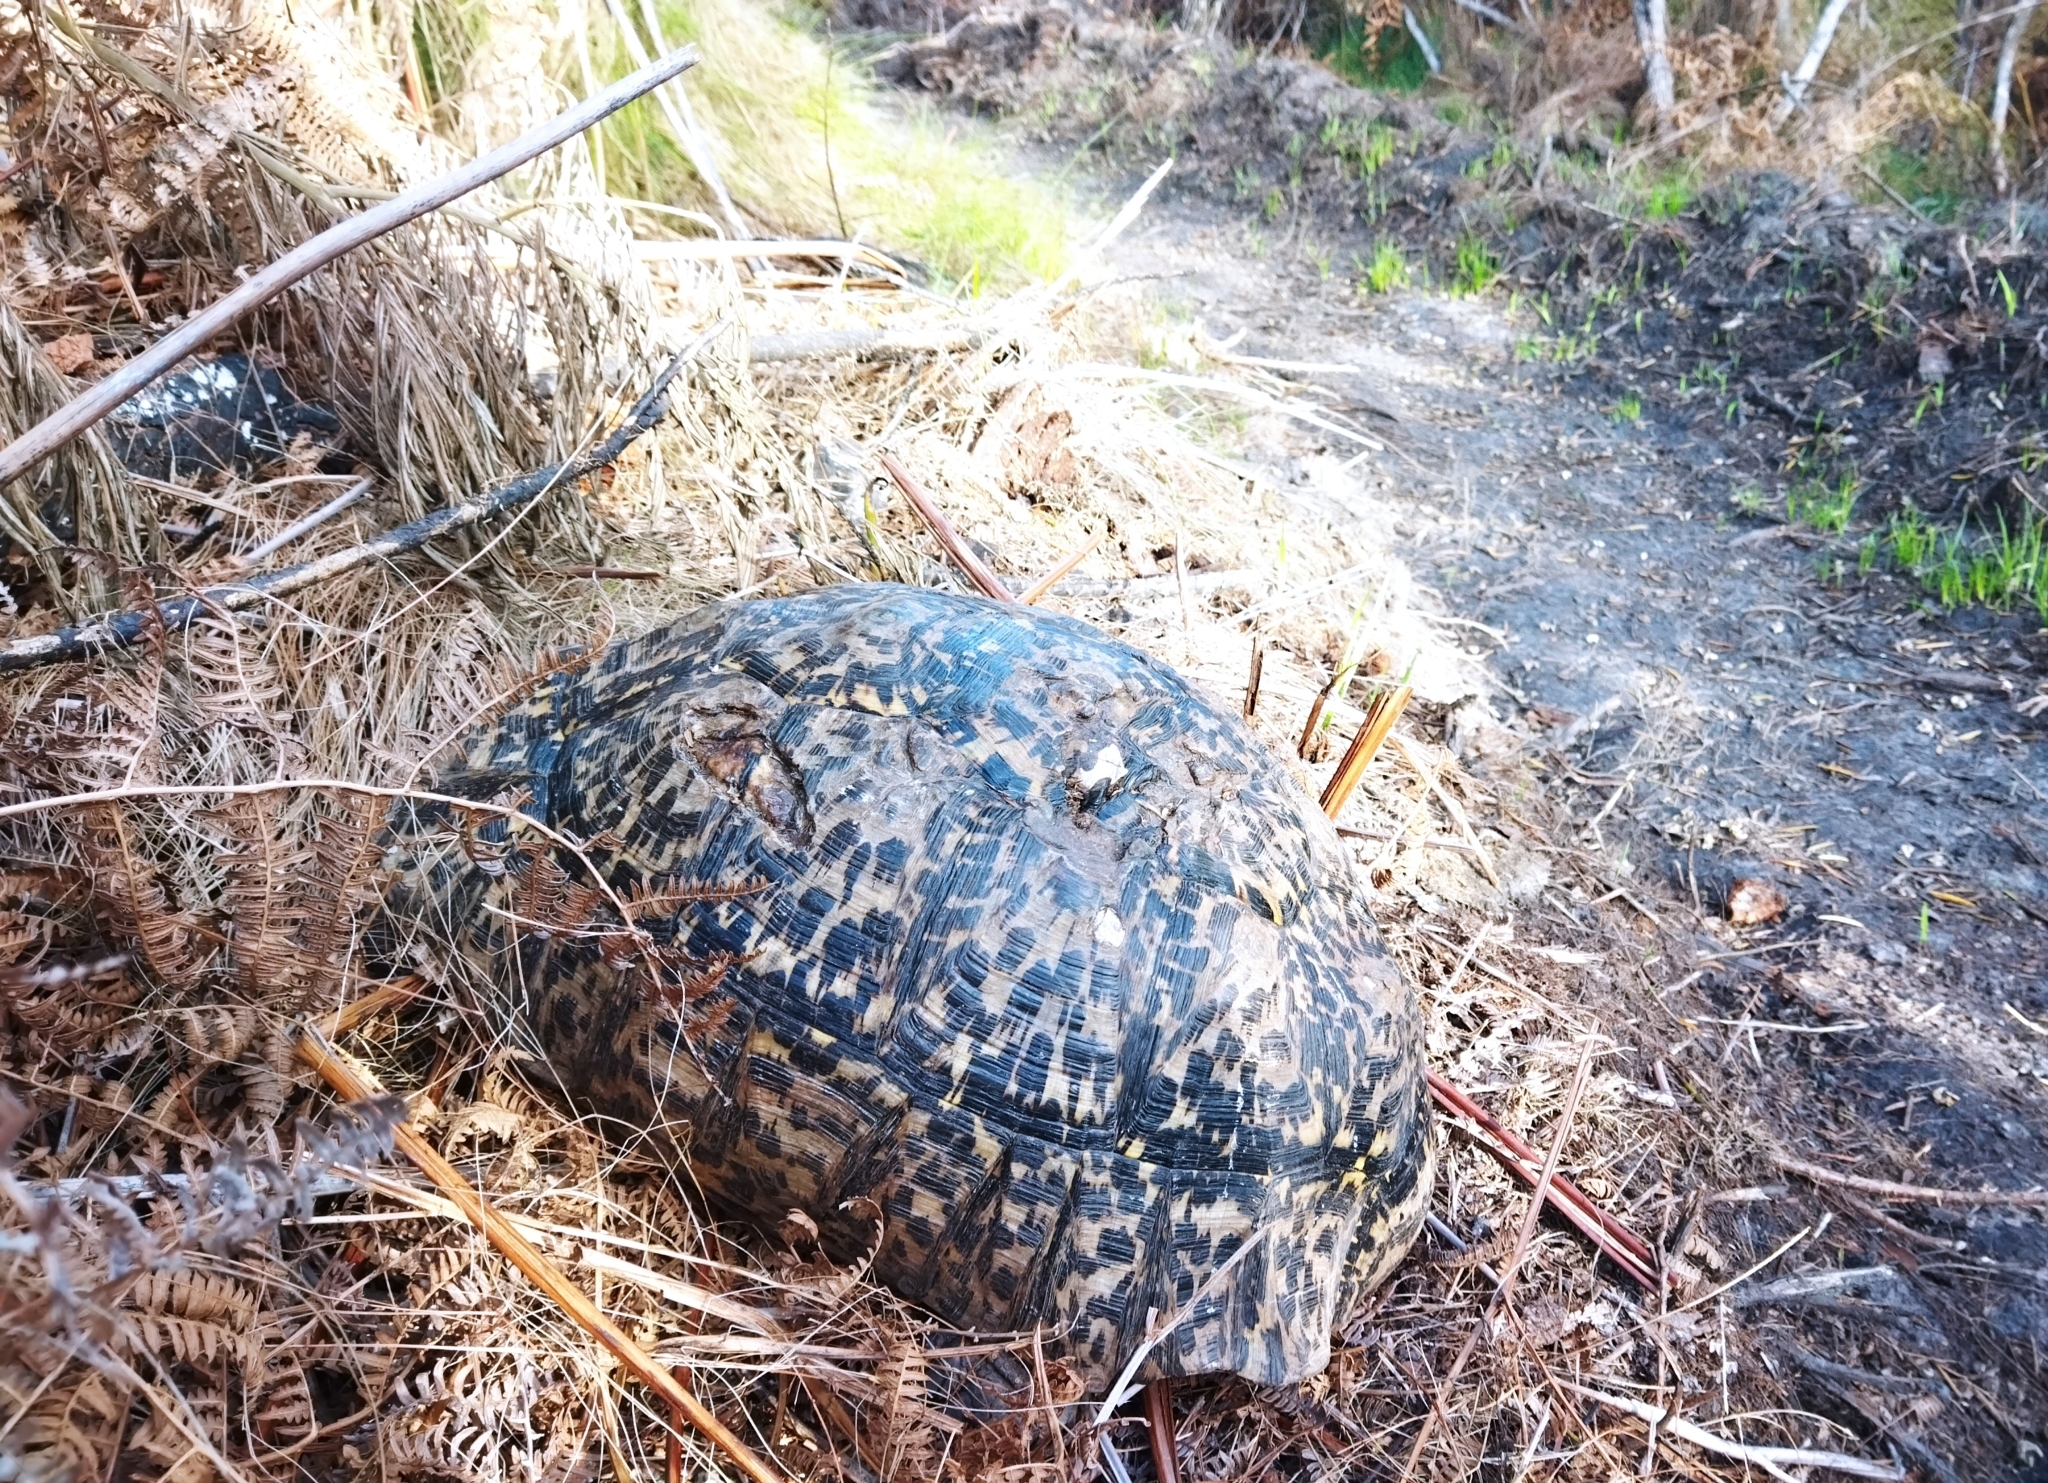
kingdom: Animalia
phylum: Chordata
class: Testudines
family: Testudinidae
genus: Stigmochelys
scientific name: Stigmochelys pardalis
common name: Leopard tortoise
